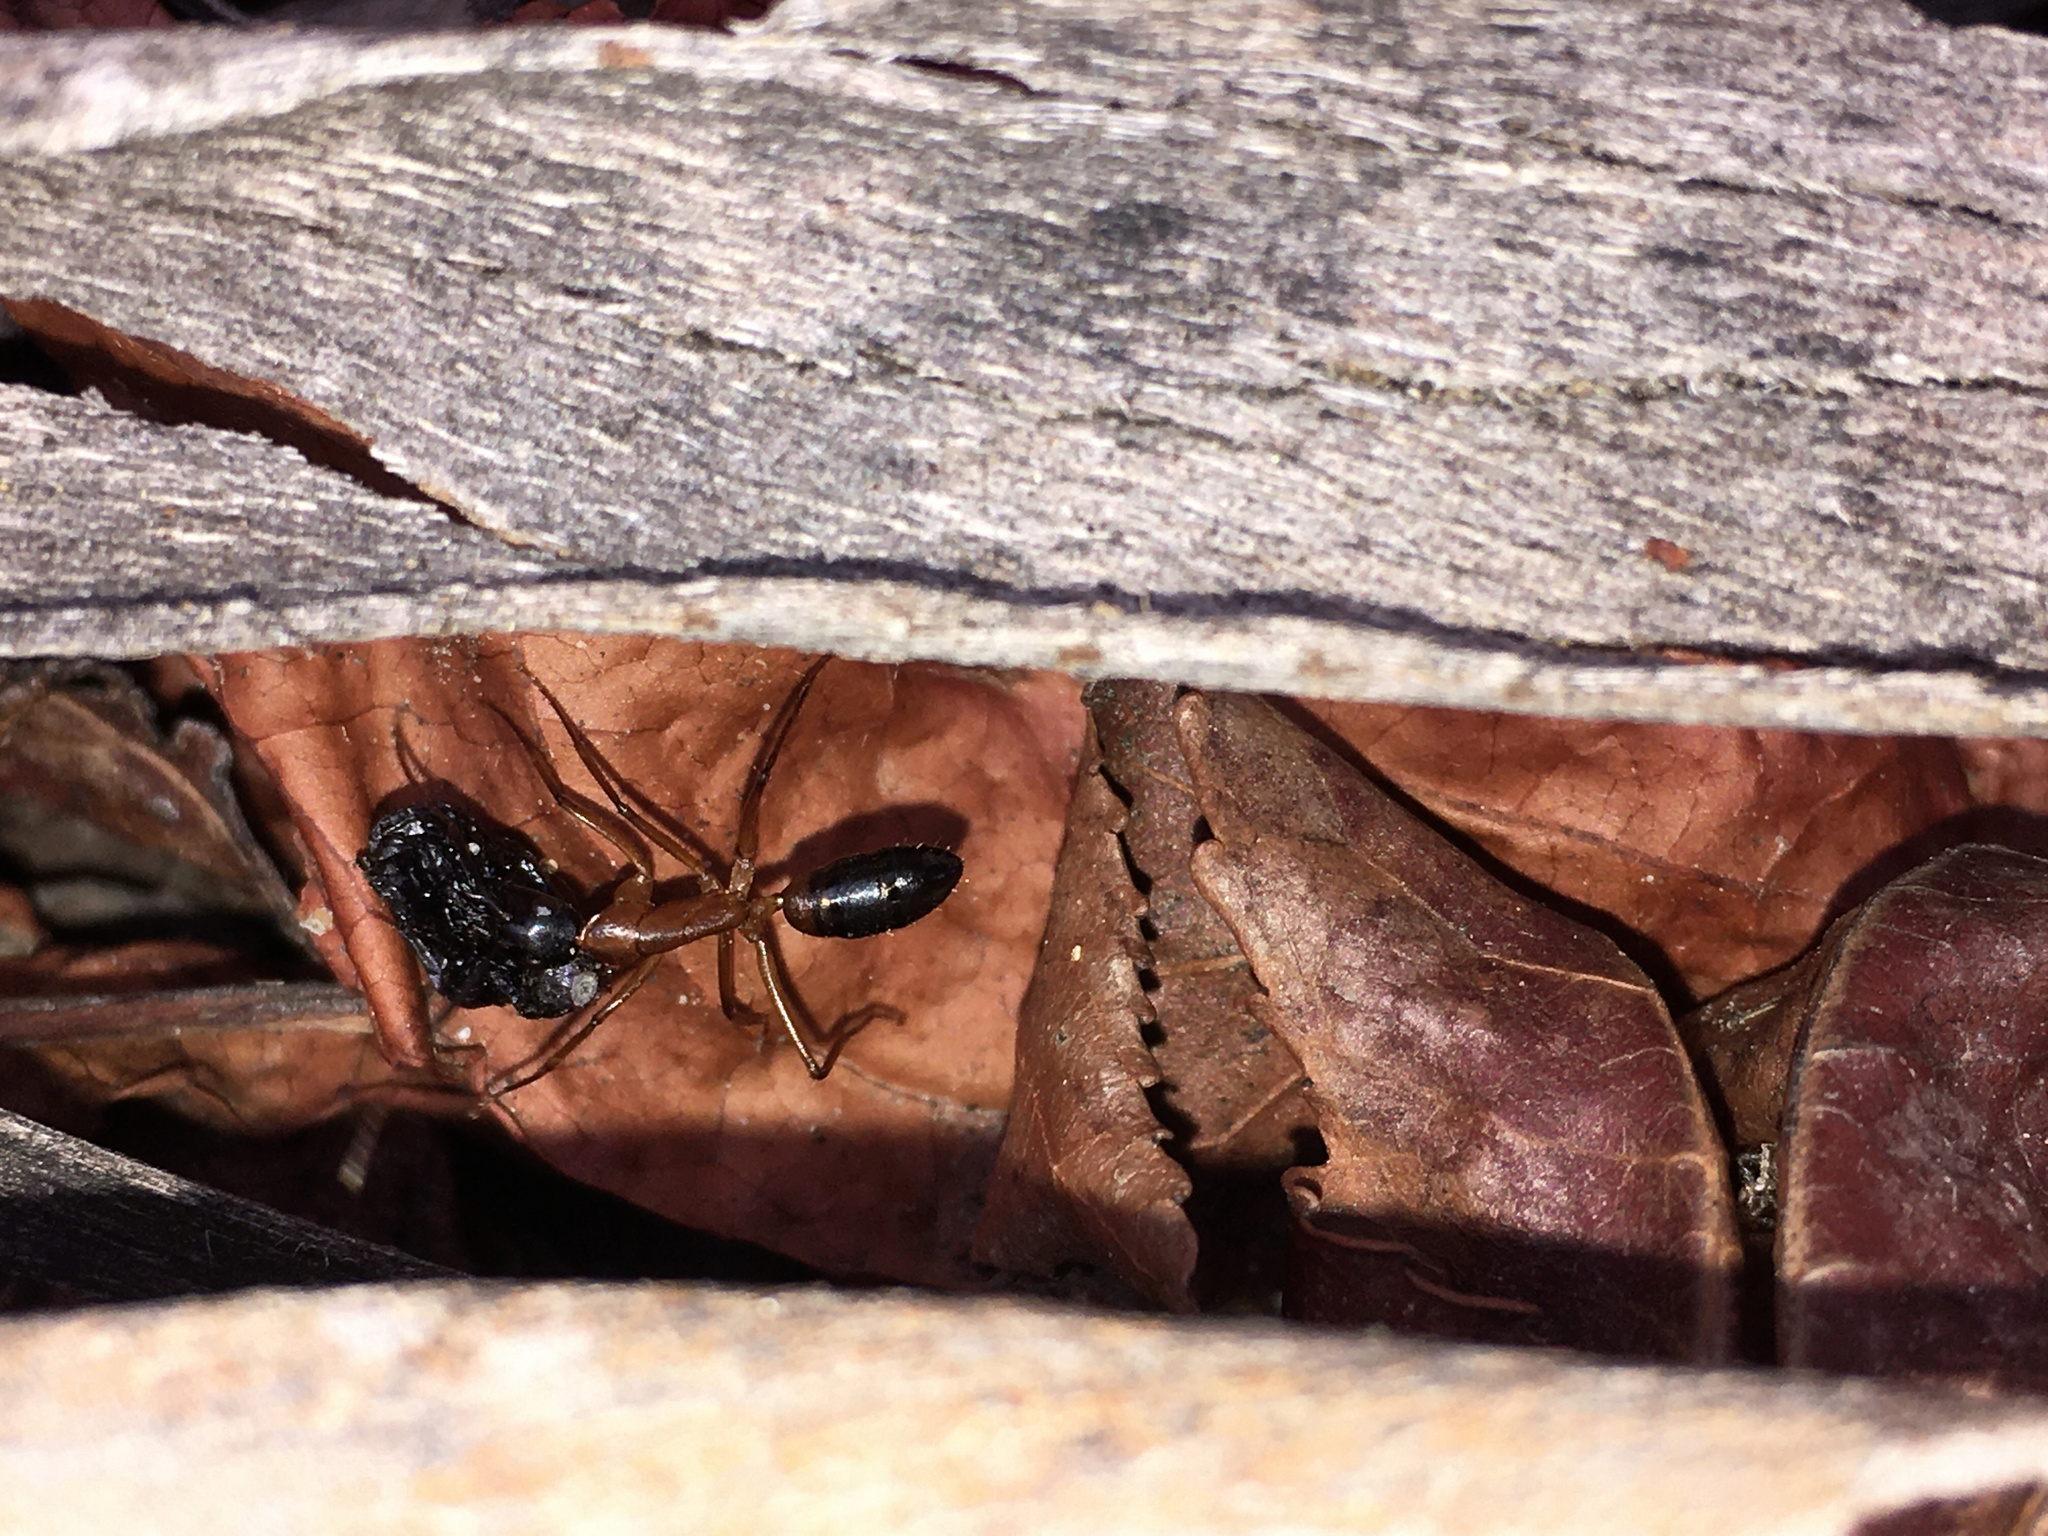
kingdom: Animalia
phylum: Arthropoda
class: Insecta
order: Hymenoptera
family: Formicidae
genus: Camponotus
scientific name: Camponotus consobrinus
